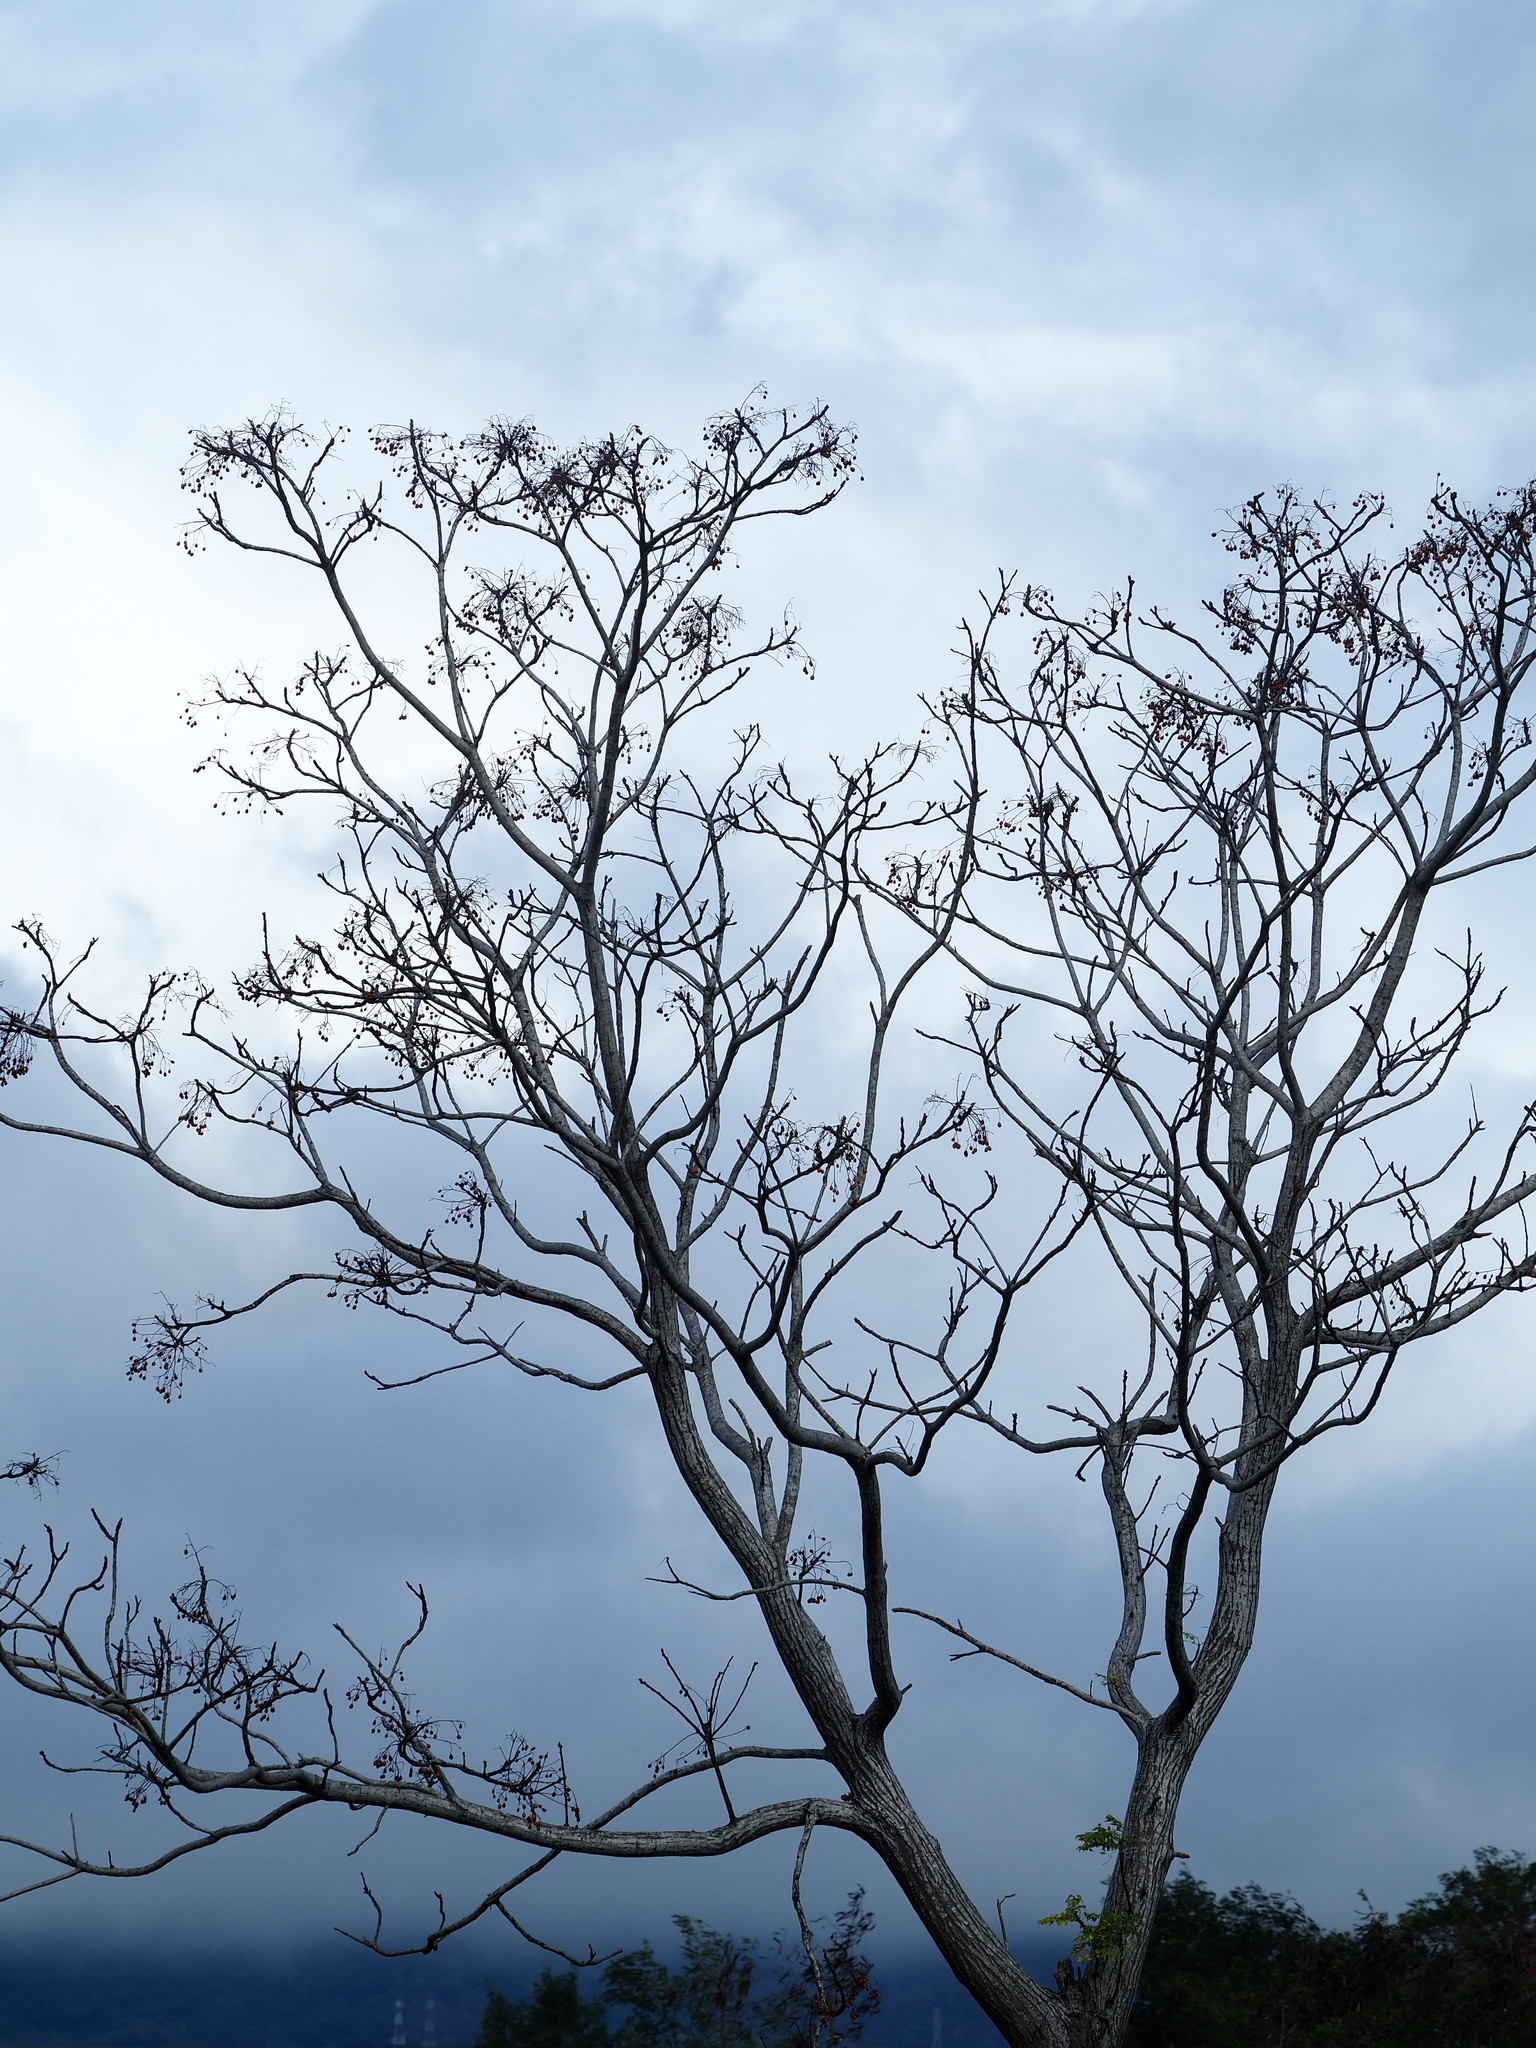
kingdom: Plantae
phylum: Tracheophyta
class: Magnoliopsida
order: Sapindales
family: Meliaceae
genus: Melia
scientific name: Melia azedarach
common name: Chinaberrytree
